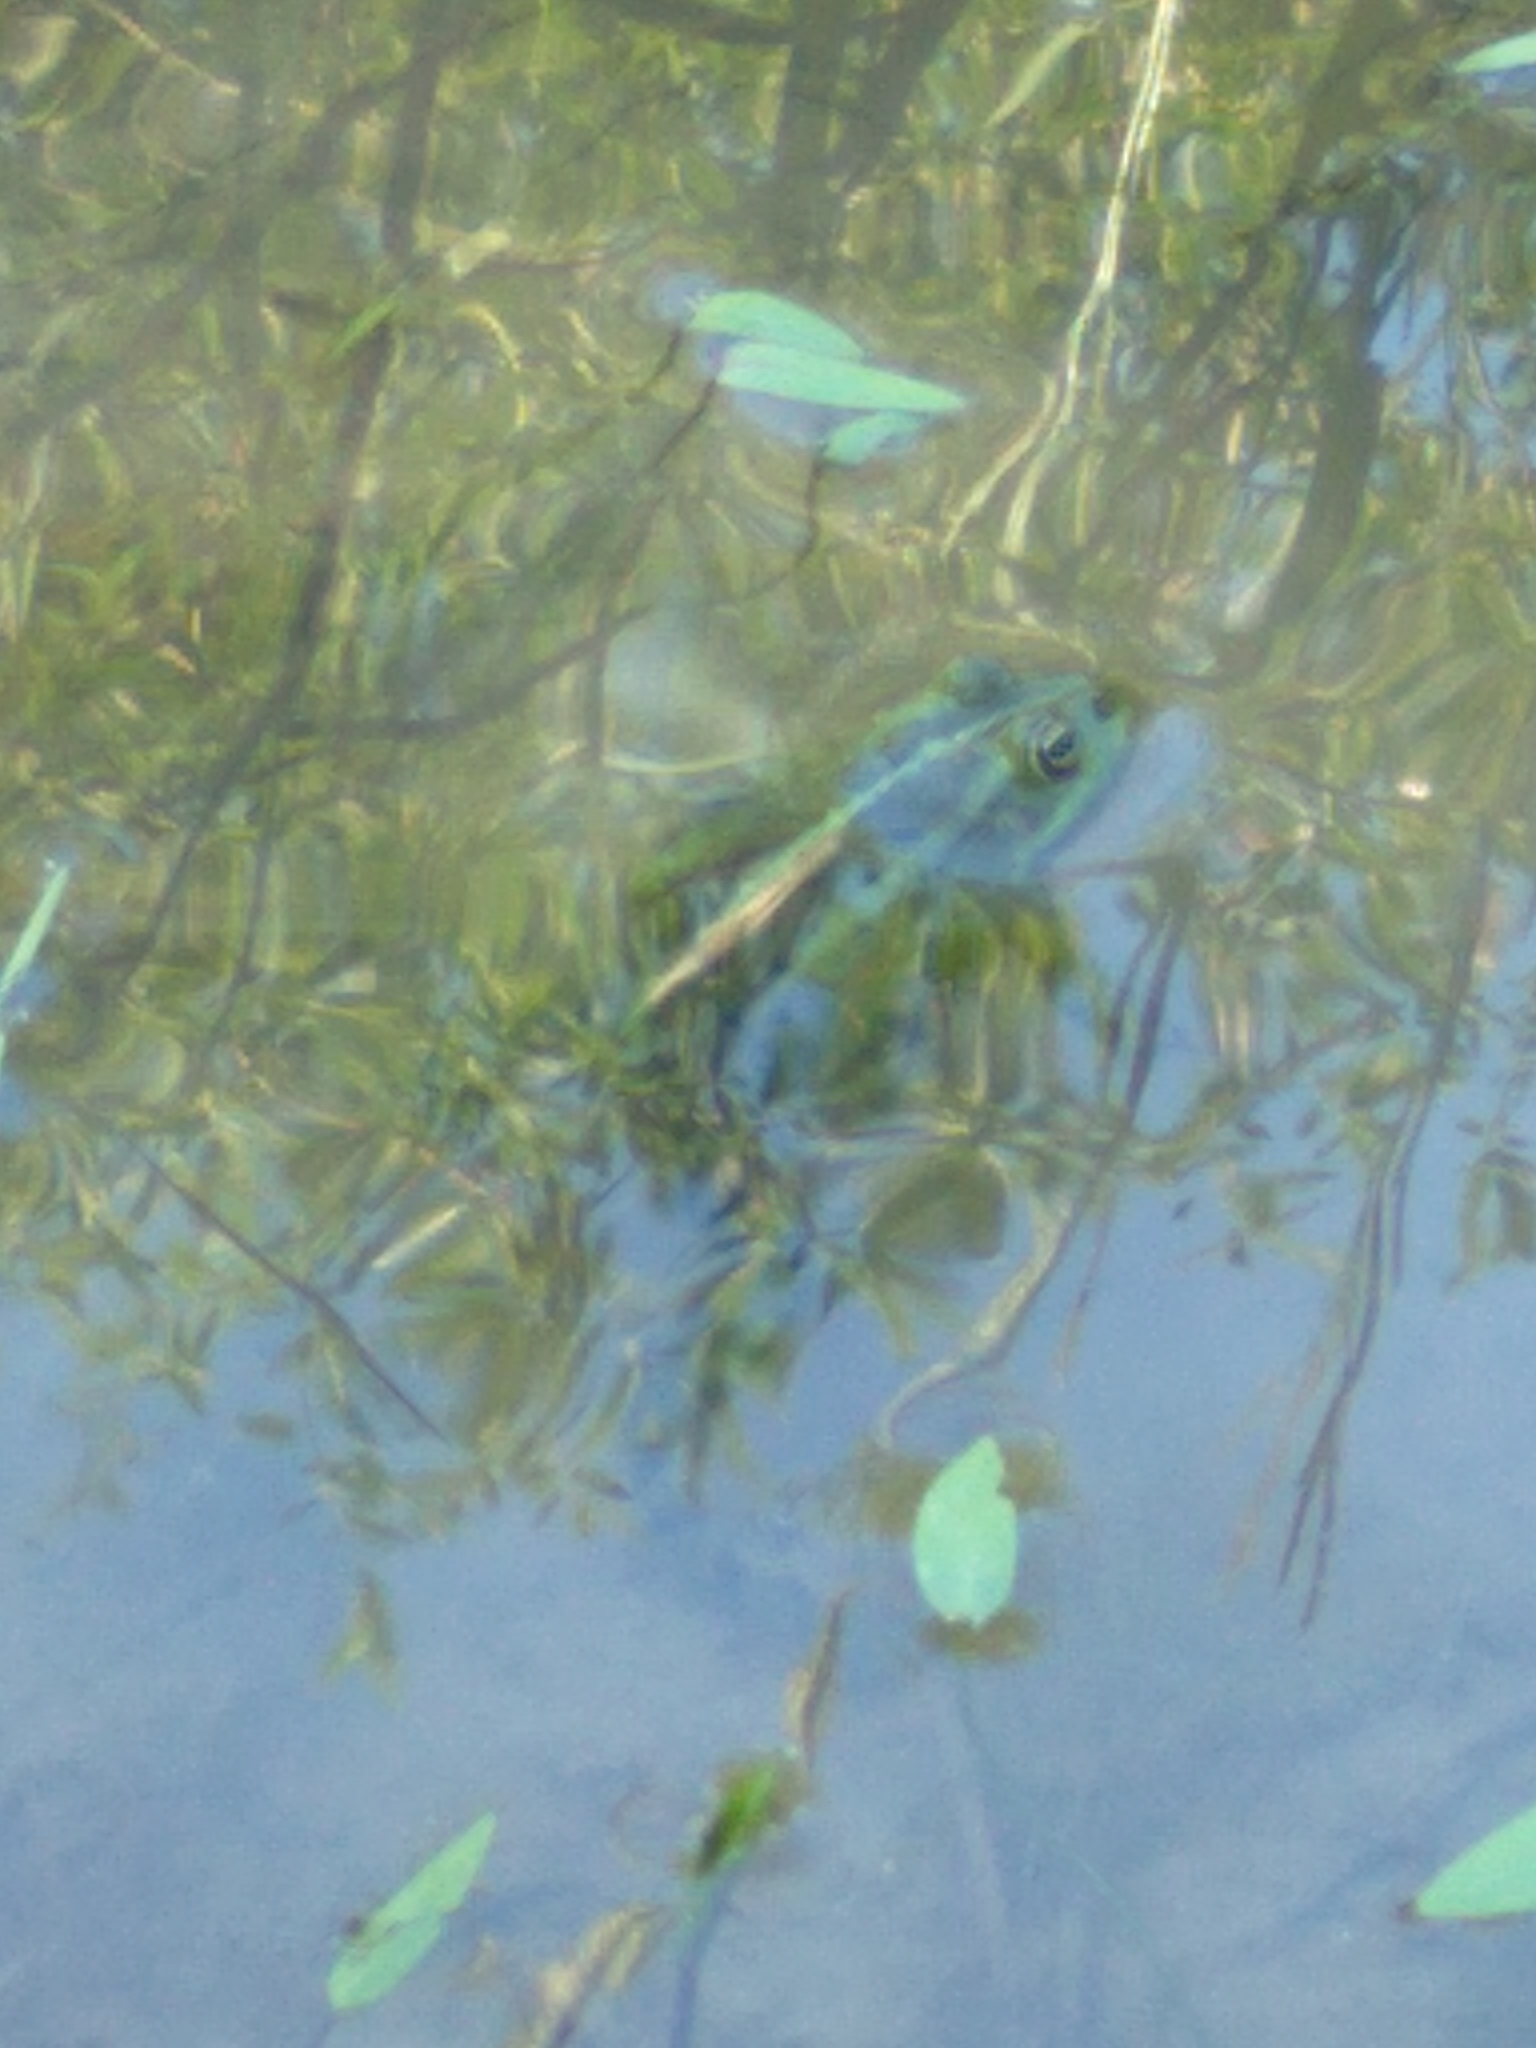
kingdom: Animalia
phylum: Chordata
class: Amphibia
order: Anura
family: Ranidae
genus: Pelophylax
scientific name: Pelophylax ridibundus
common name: Marsh frog
